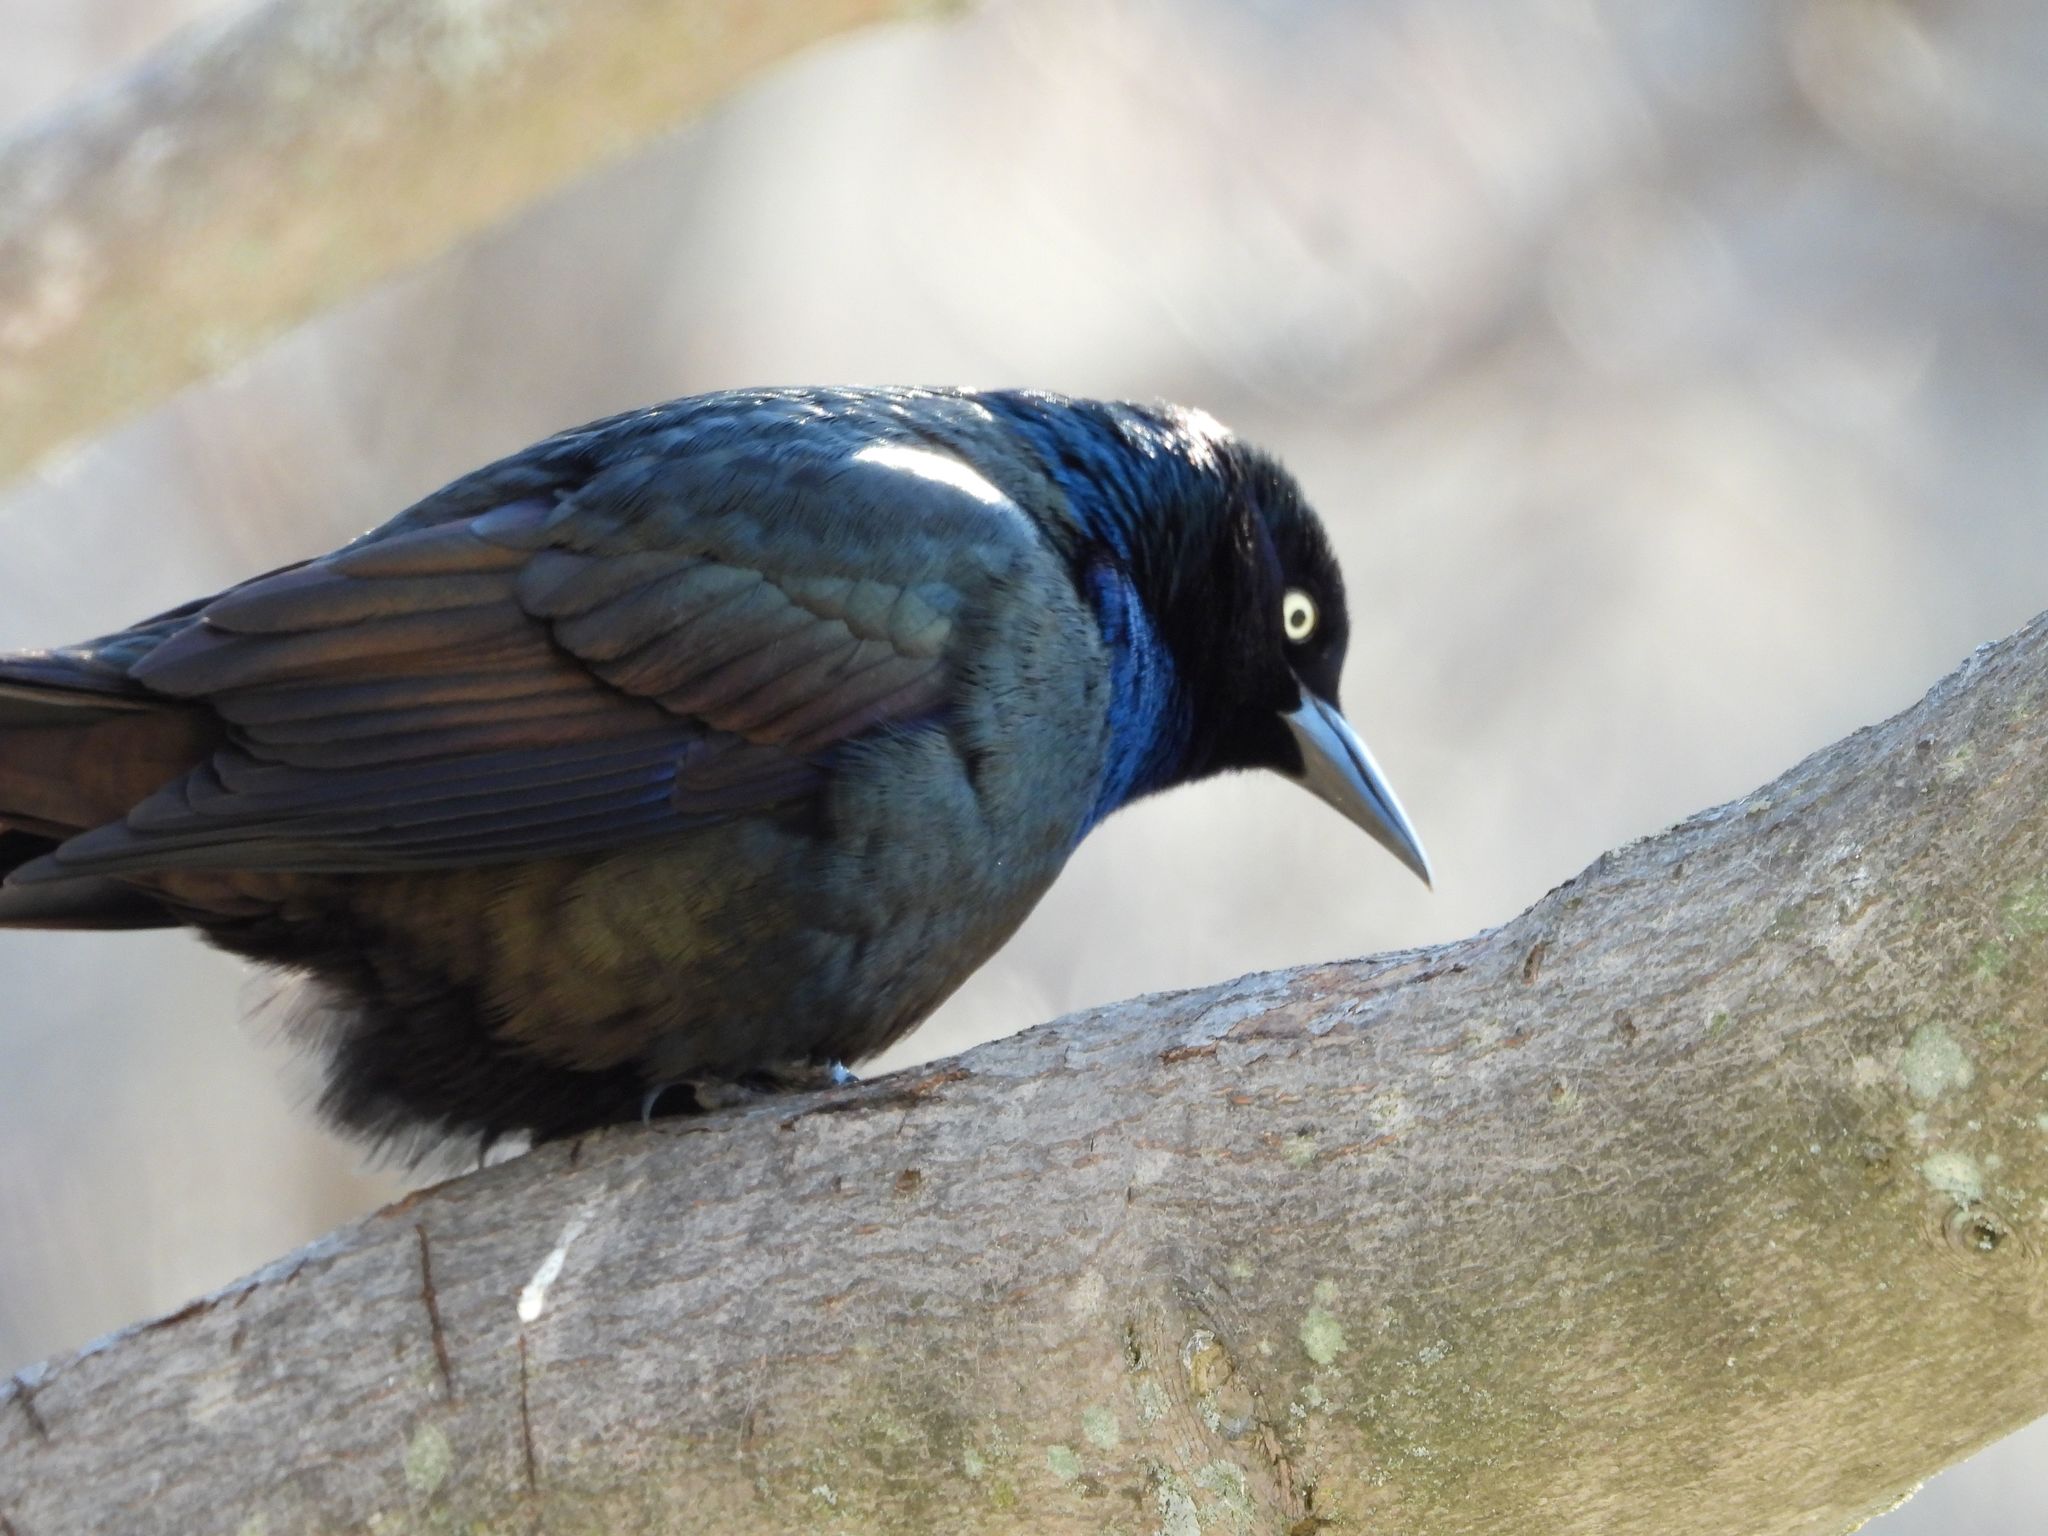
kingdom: Animalia
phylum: Chordata
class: Aves
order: Passeriformes
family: Icteridae
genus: Quiscalus
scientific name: Quiscalus quiscula
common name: Common grackle
